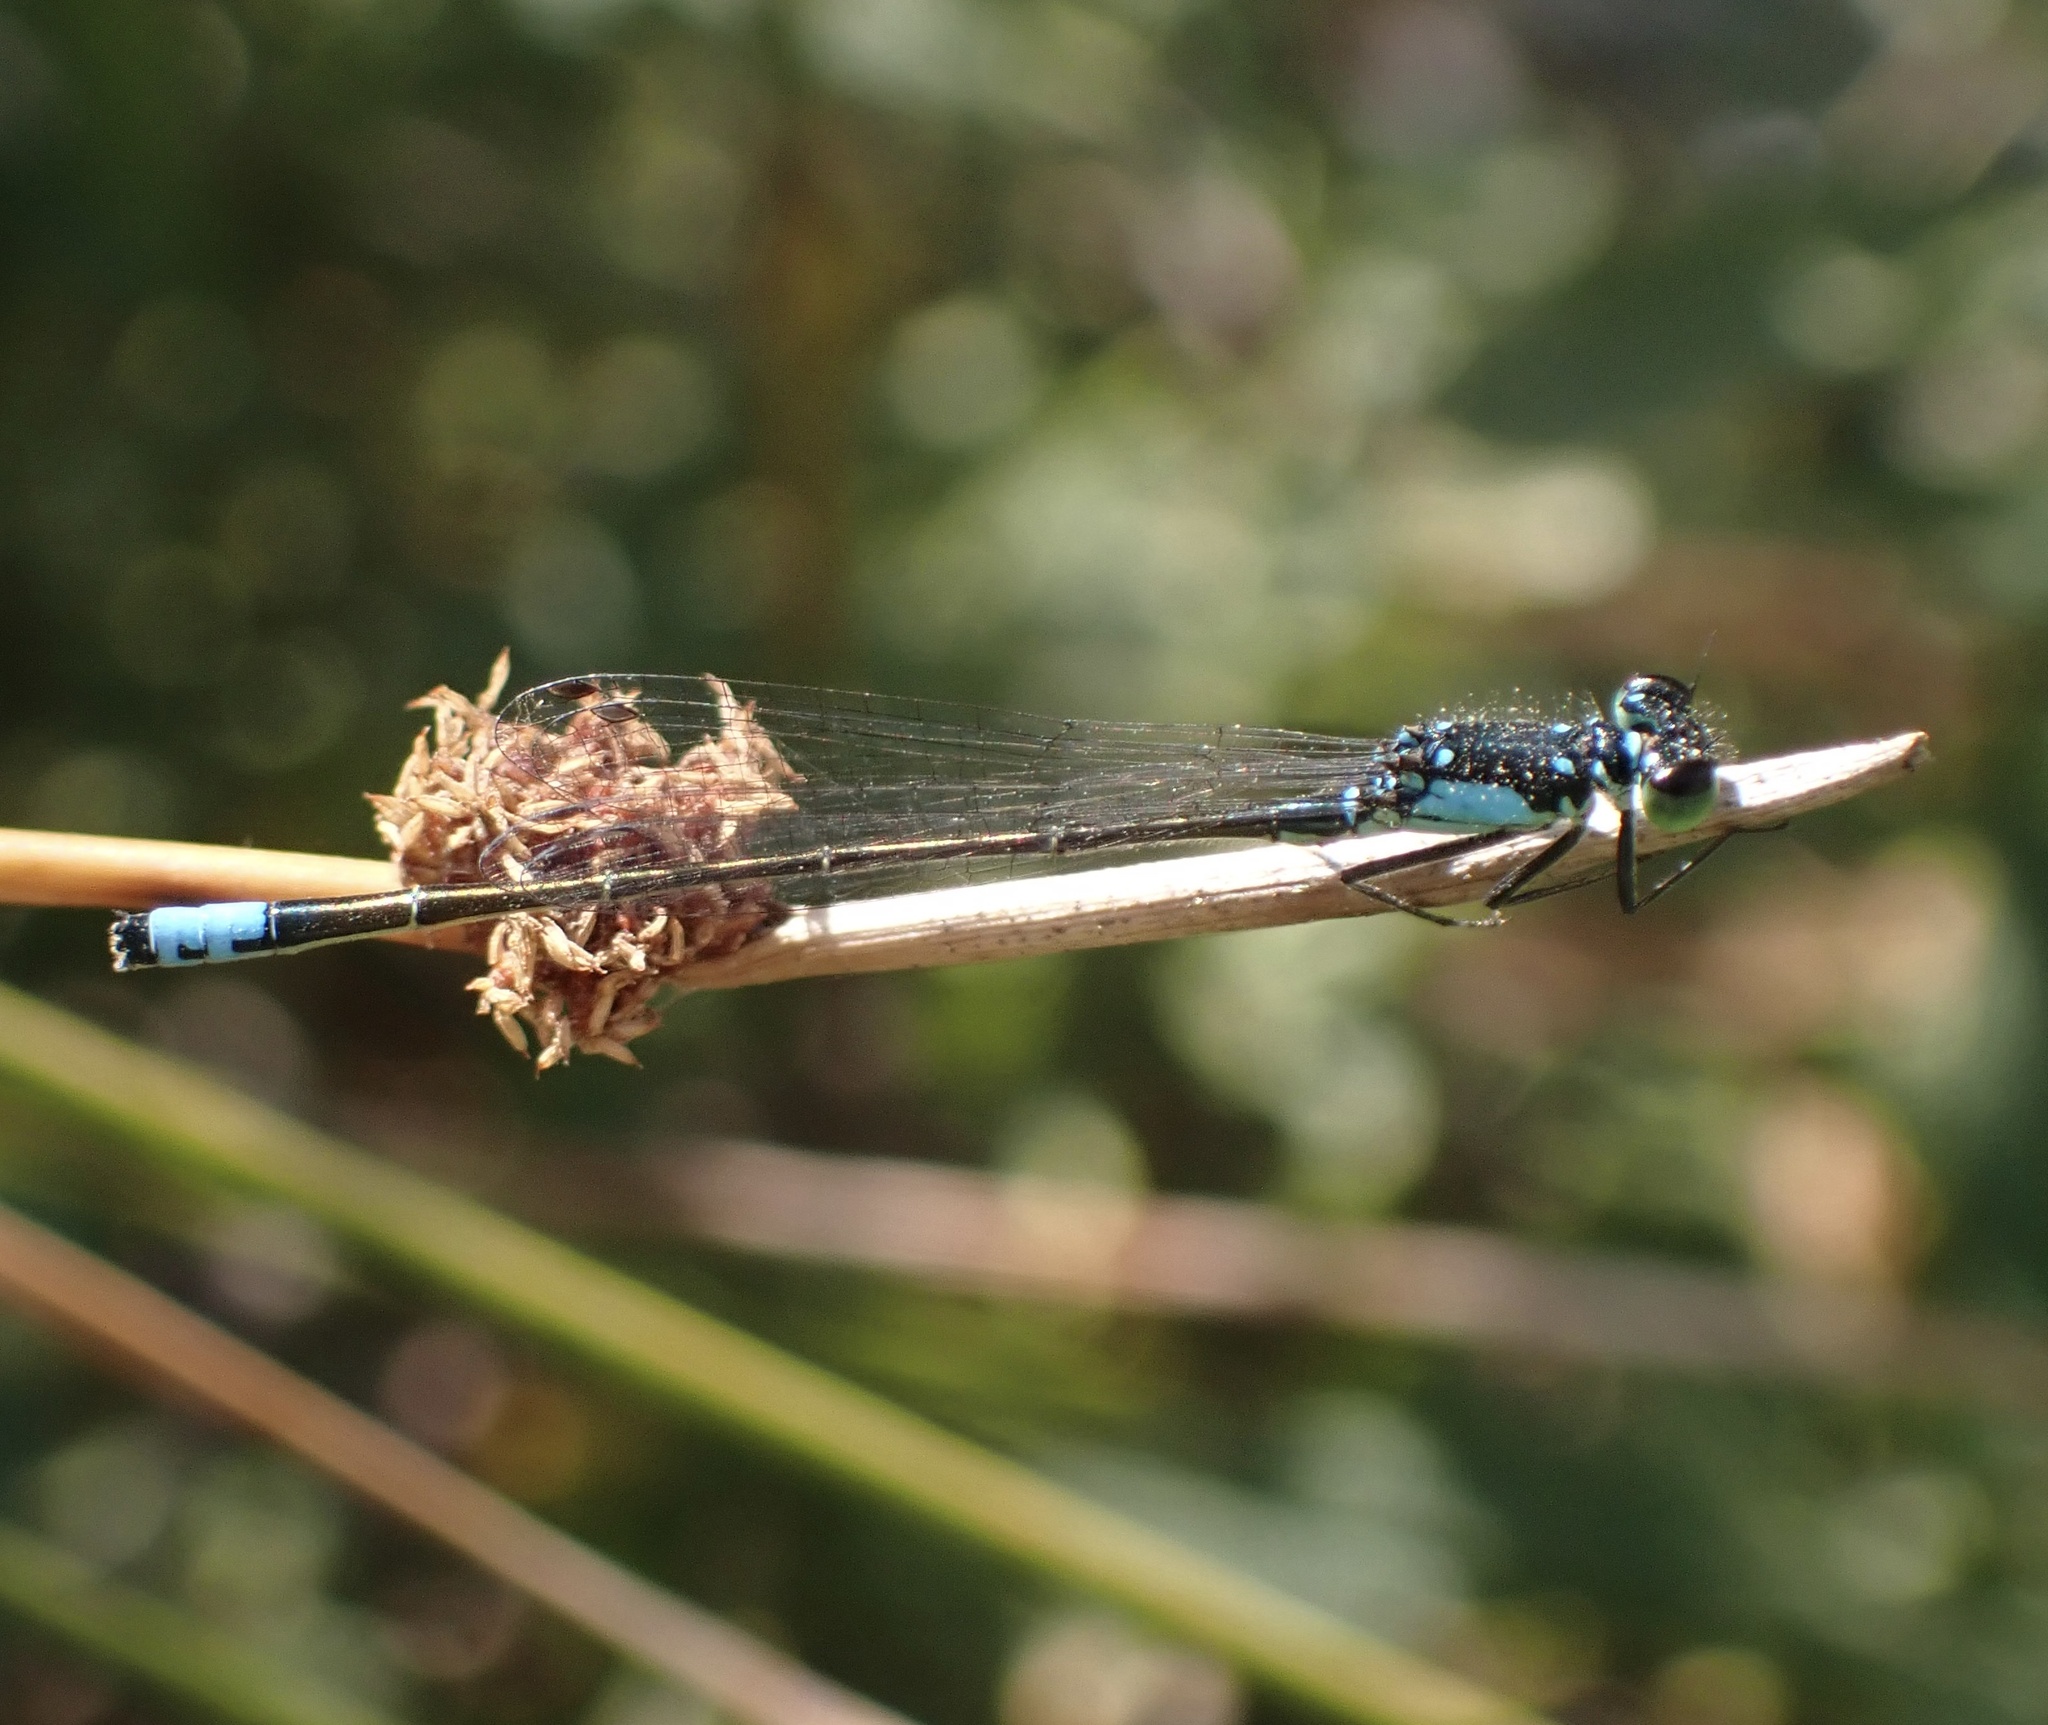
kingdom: Animalia
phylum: Arthropoda
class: Insecta
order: Odonata
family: Coenagrionidae
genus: Ischnura
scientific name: Ischnura cervula
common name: Pacific forktail
